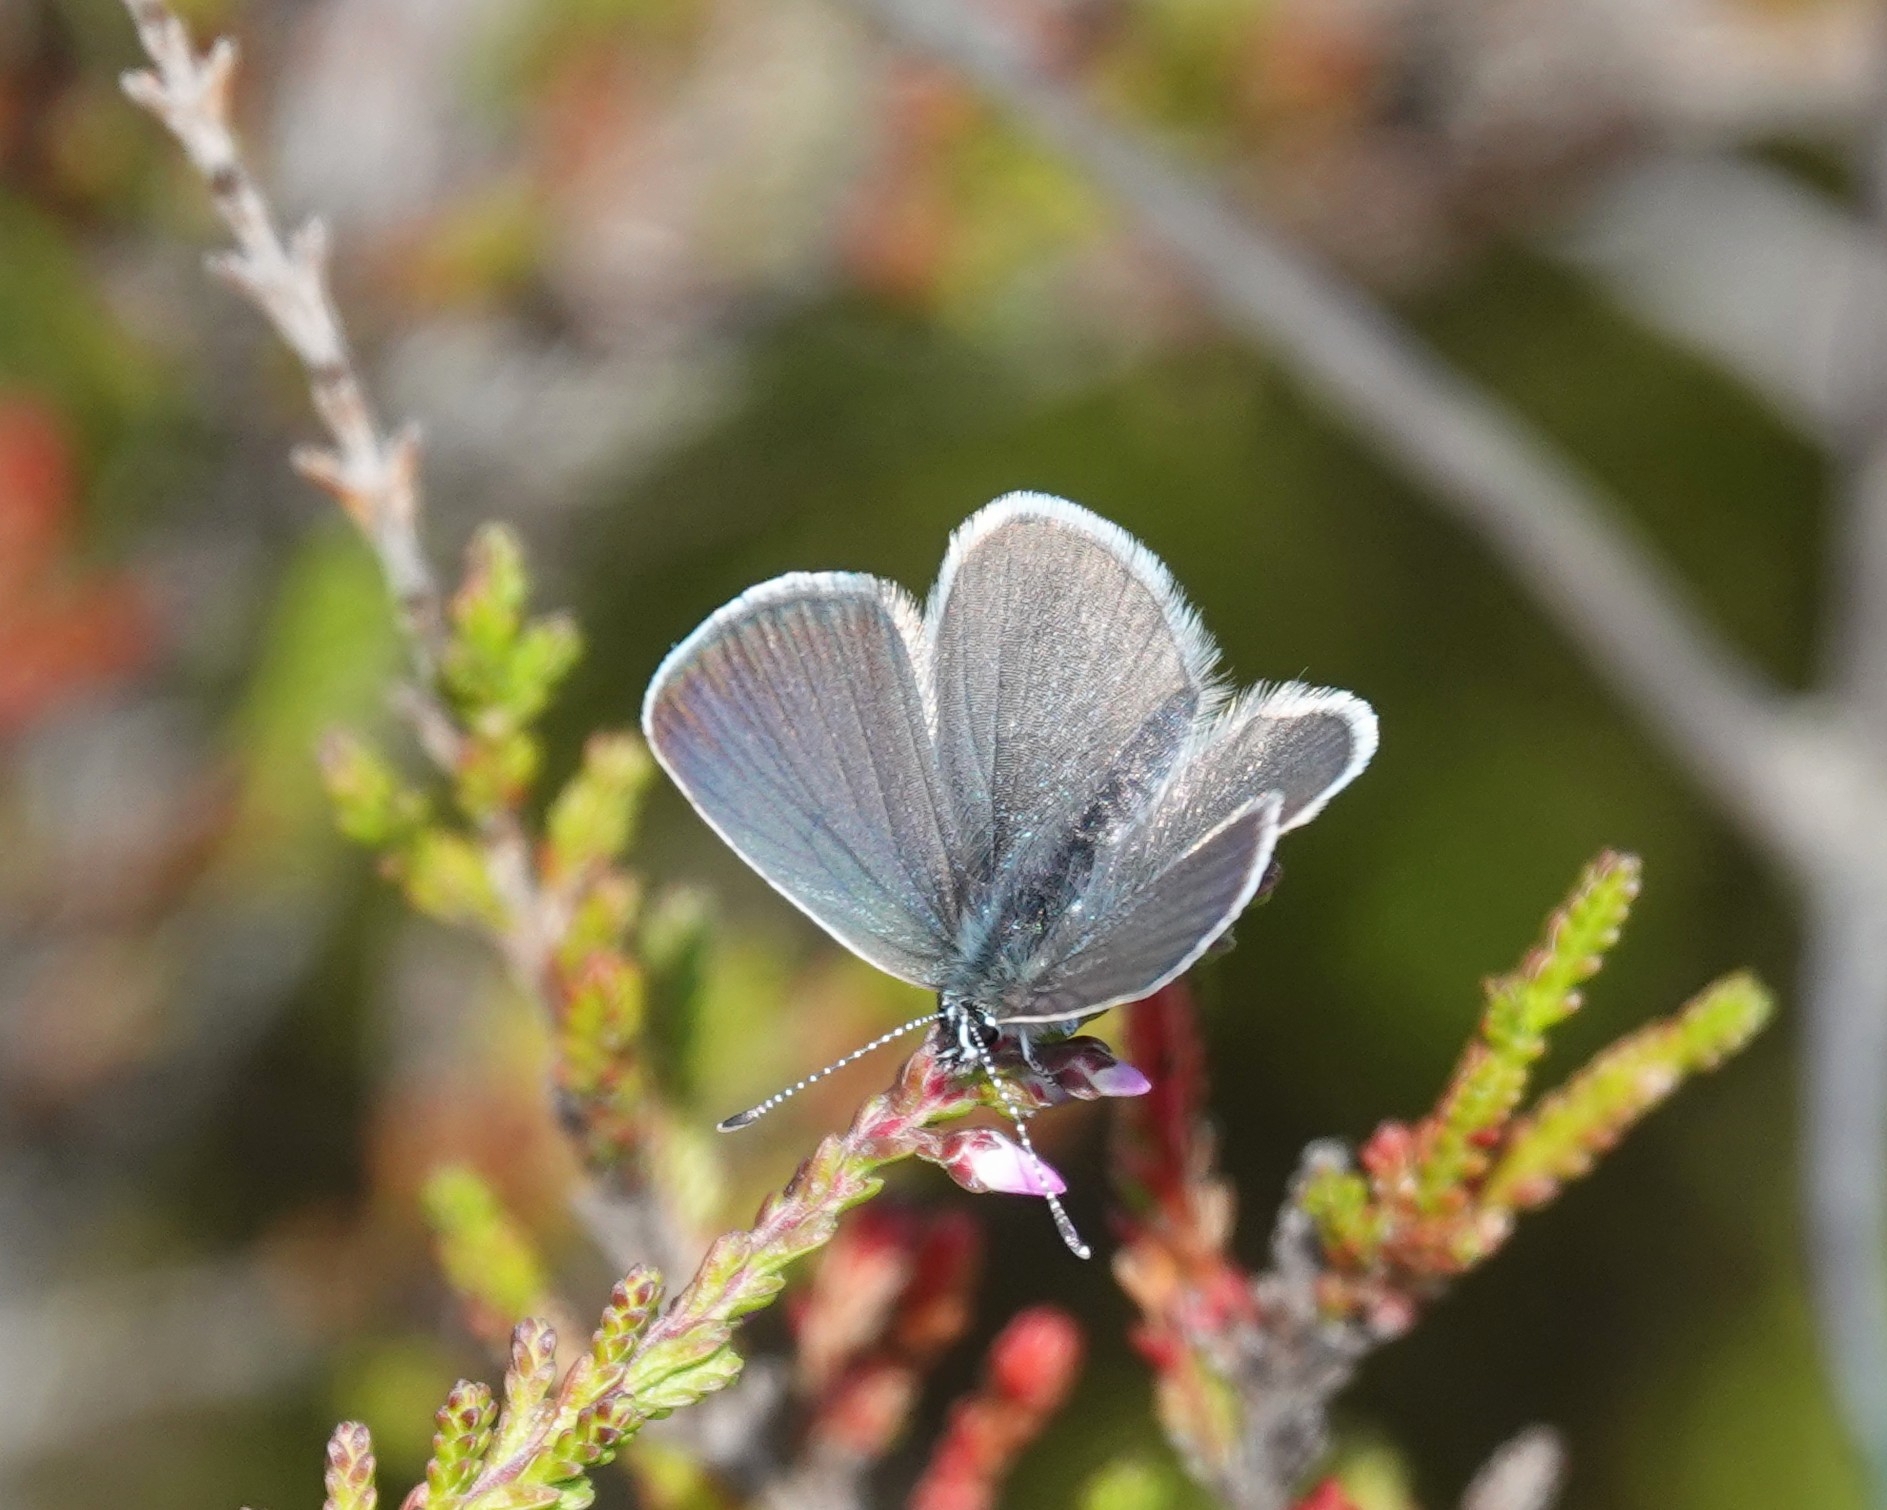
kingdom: Animalia
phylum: Arthropoda
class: Insecta
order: Lepidoptera
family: Lycaenidae
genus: Cupido
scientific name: Cupido minimus
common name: Small blue
